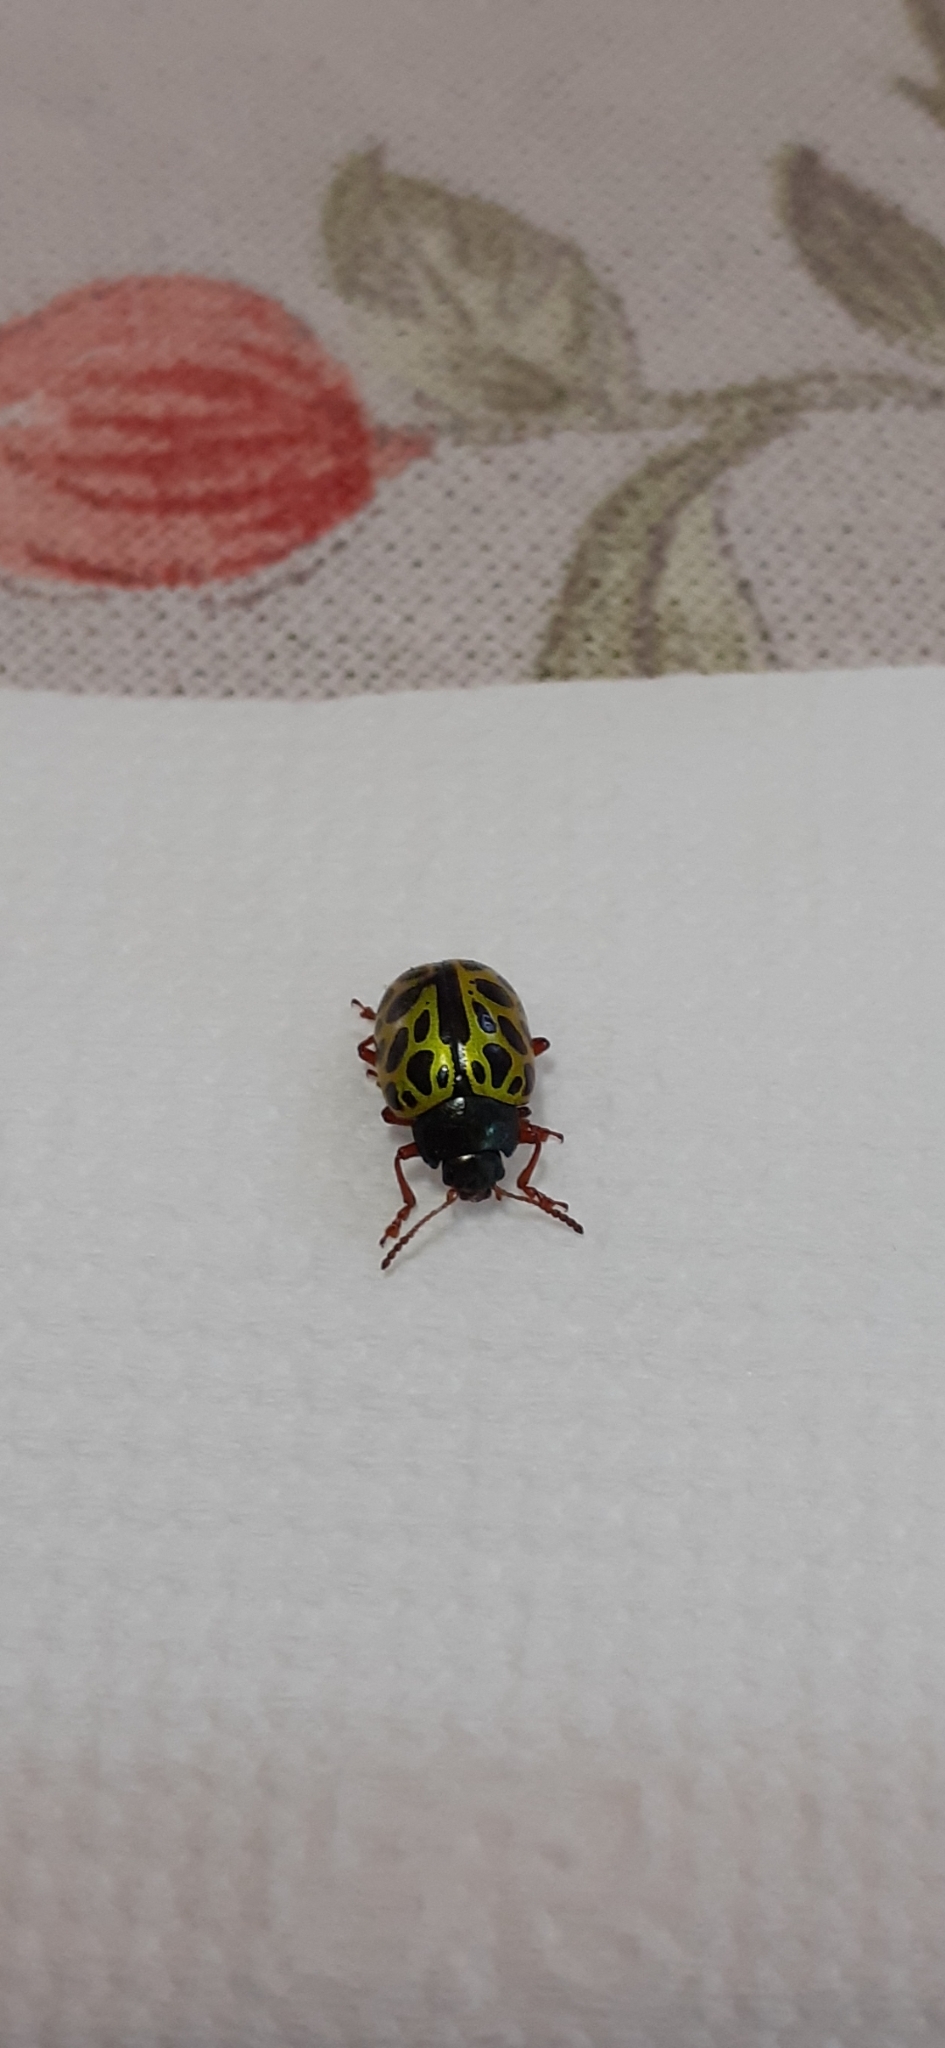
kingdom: Animalia
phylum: Arthropoda
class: Insecta
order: Coleoptera
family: Chrysomelidae
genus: Calligrapha
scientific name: Calligrapha polyspila
